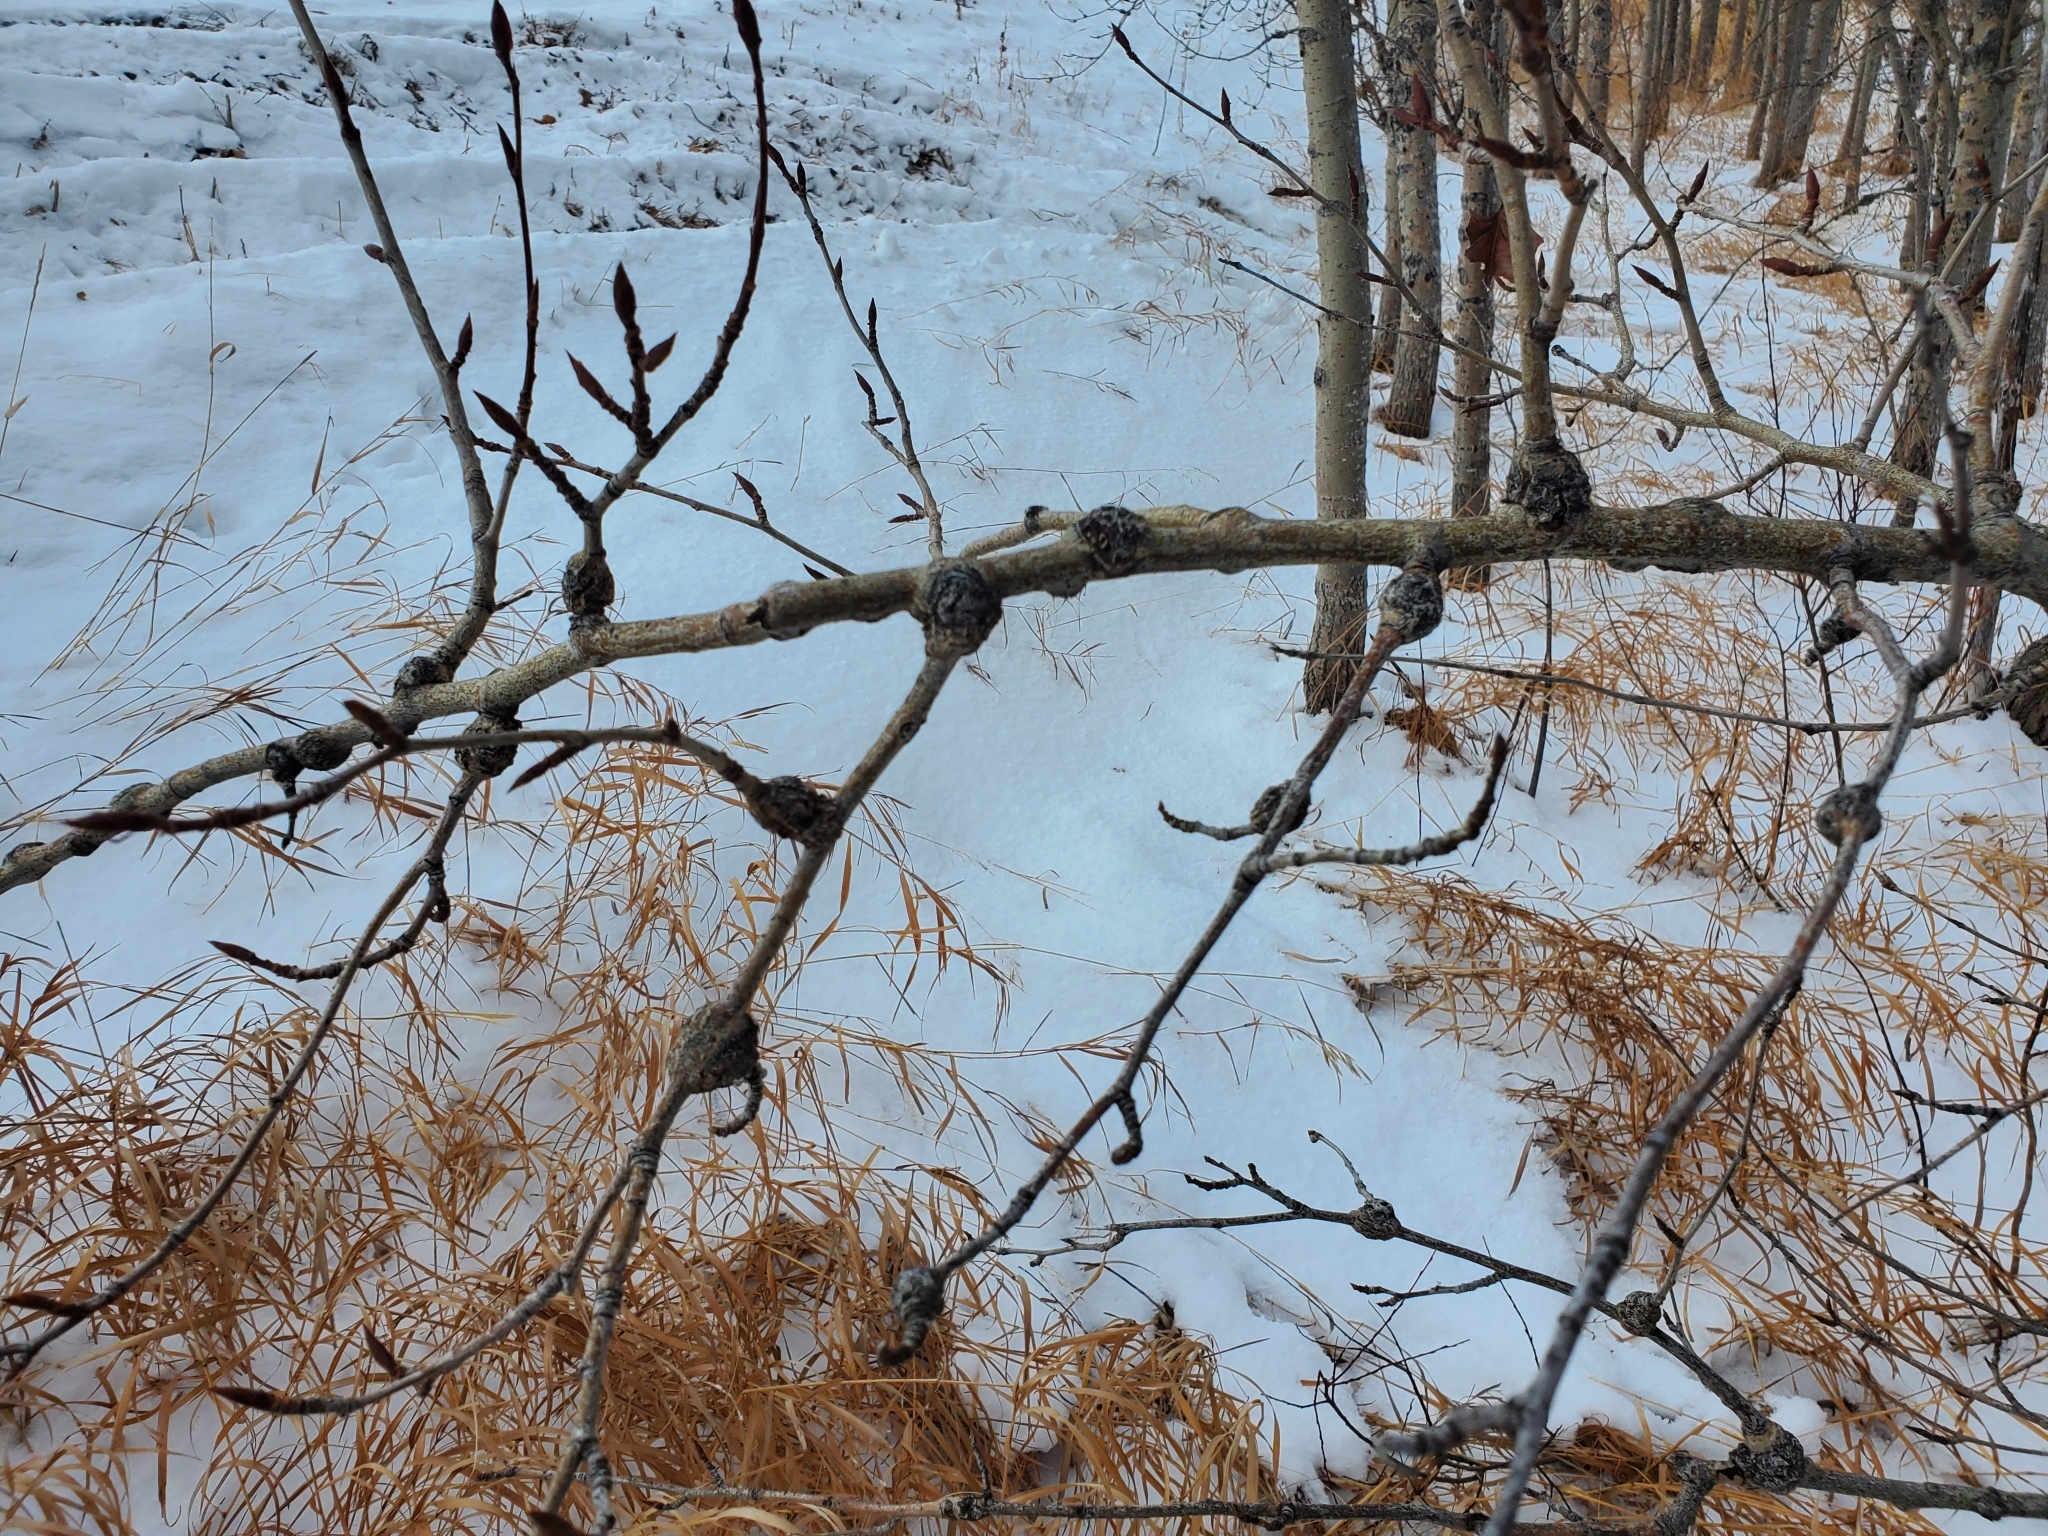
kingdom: Fungi
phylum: Ascomycota
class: Dothideomycetes
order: Botryosphaeriales
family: Botryosphaeriaceae
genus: Diplodia
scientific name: Diplodia tumefaciens
